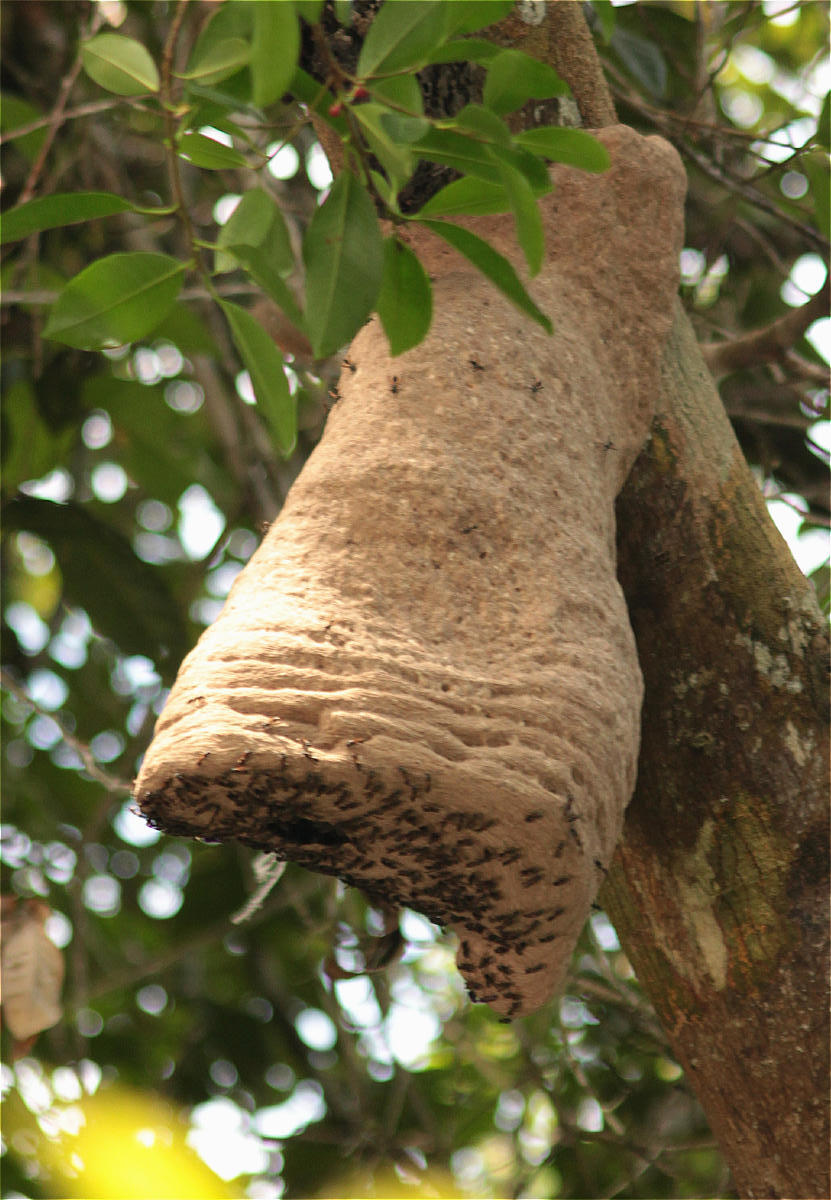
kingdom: Animalia
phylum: Arthropoda
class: Insecta
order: Hymenoptera
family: Eumenidae
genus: Polybia
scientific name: Polybia rejecta
